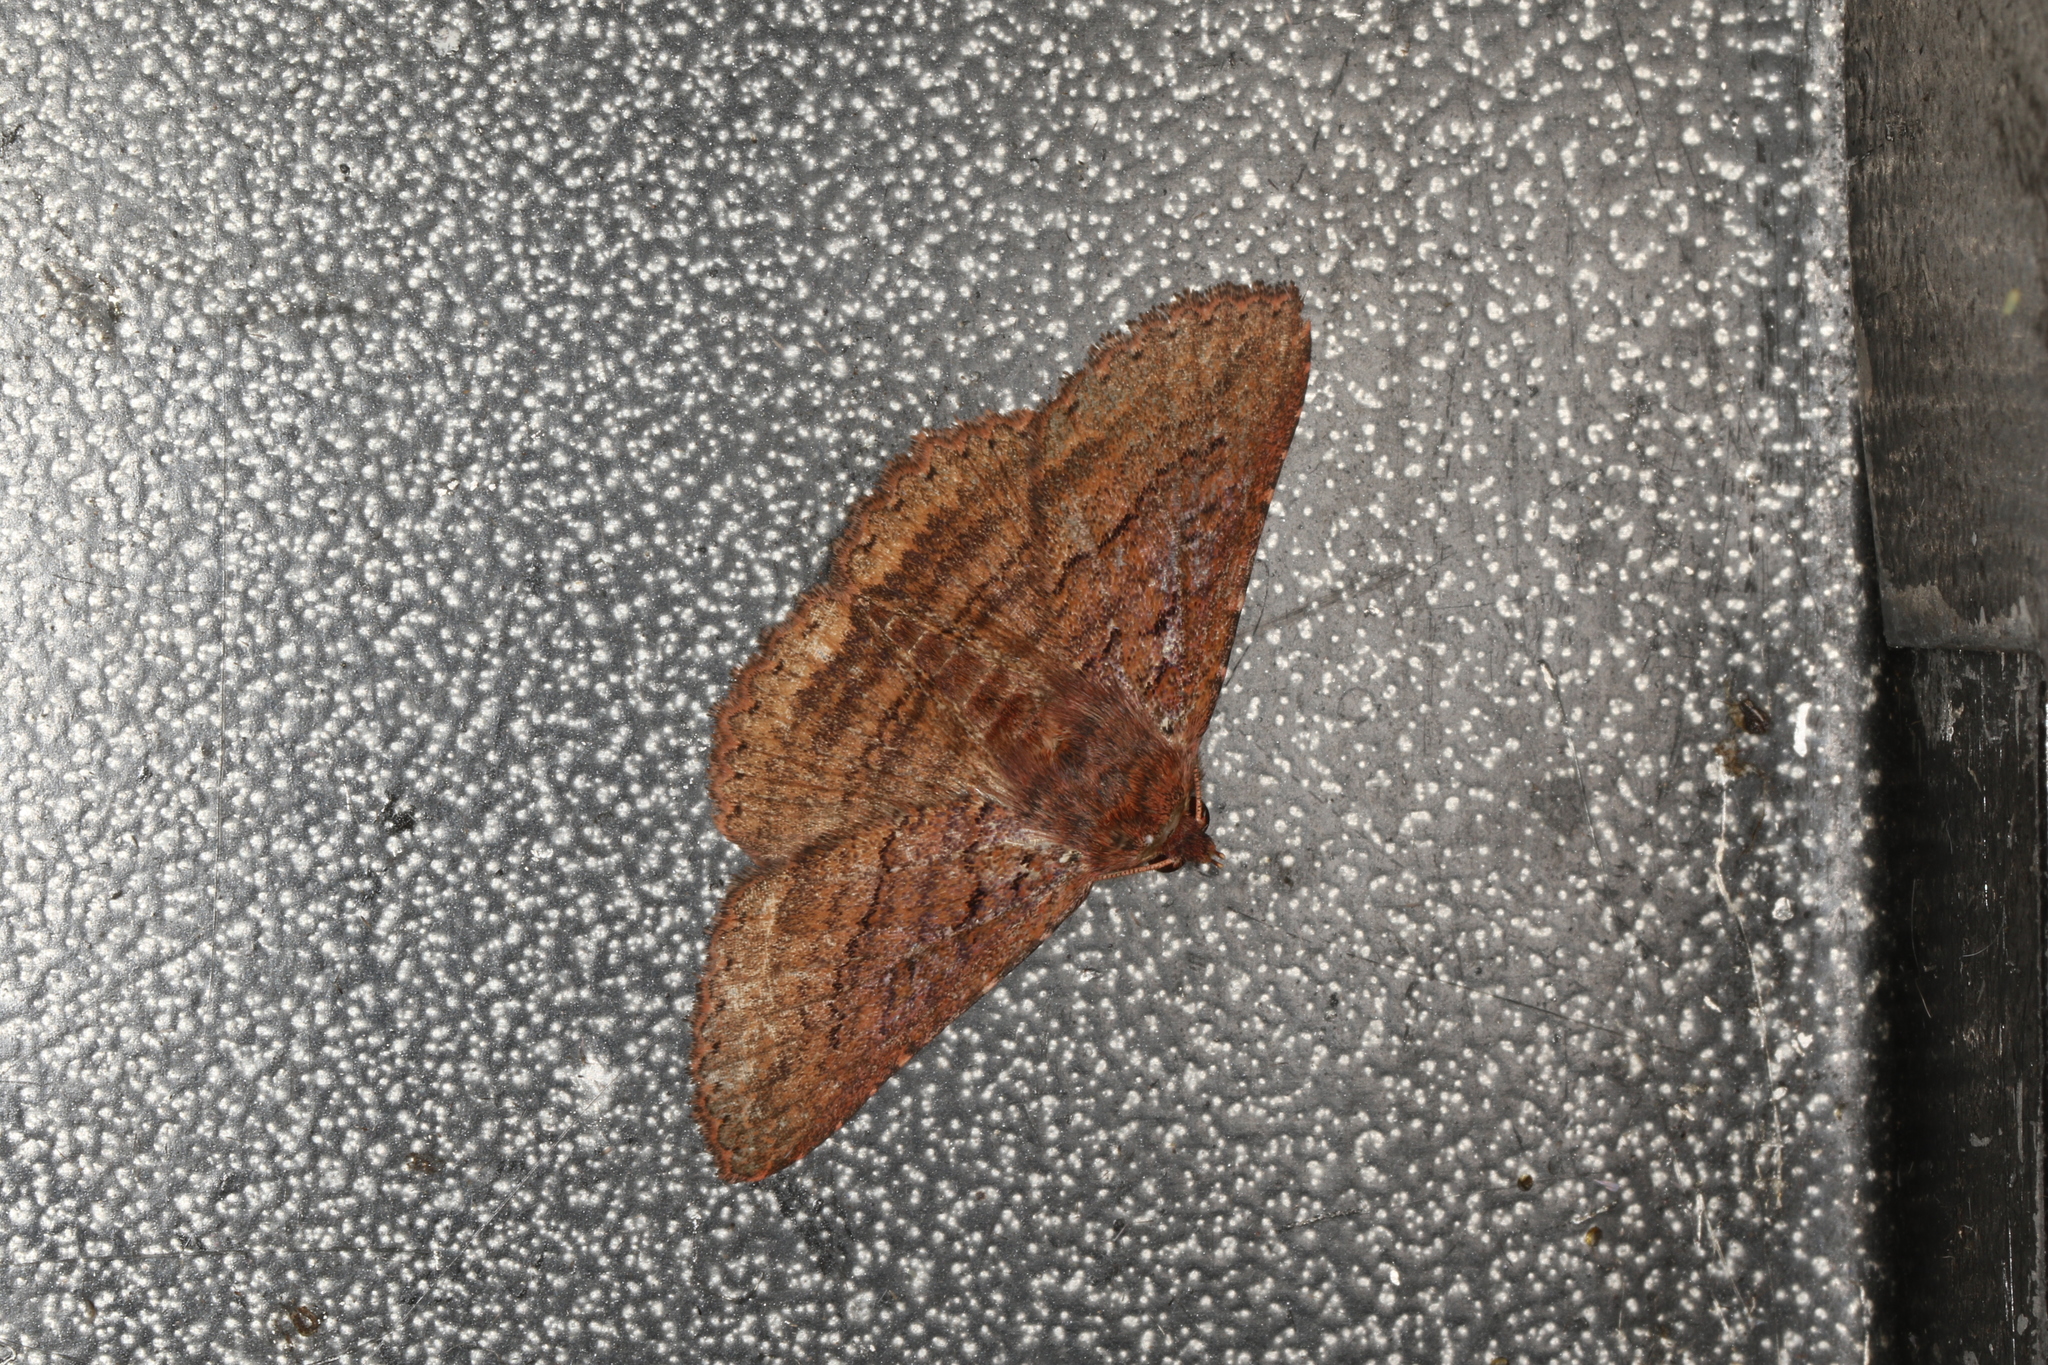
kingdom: Animalia
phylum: Arthropoda
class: Insecta
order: Lepidoptera
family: Erebidae
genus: Praxis
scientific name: Praxis porphyretica
